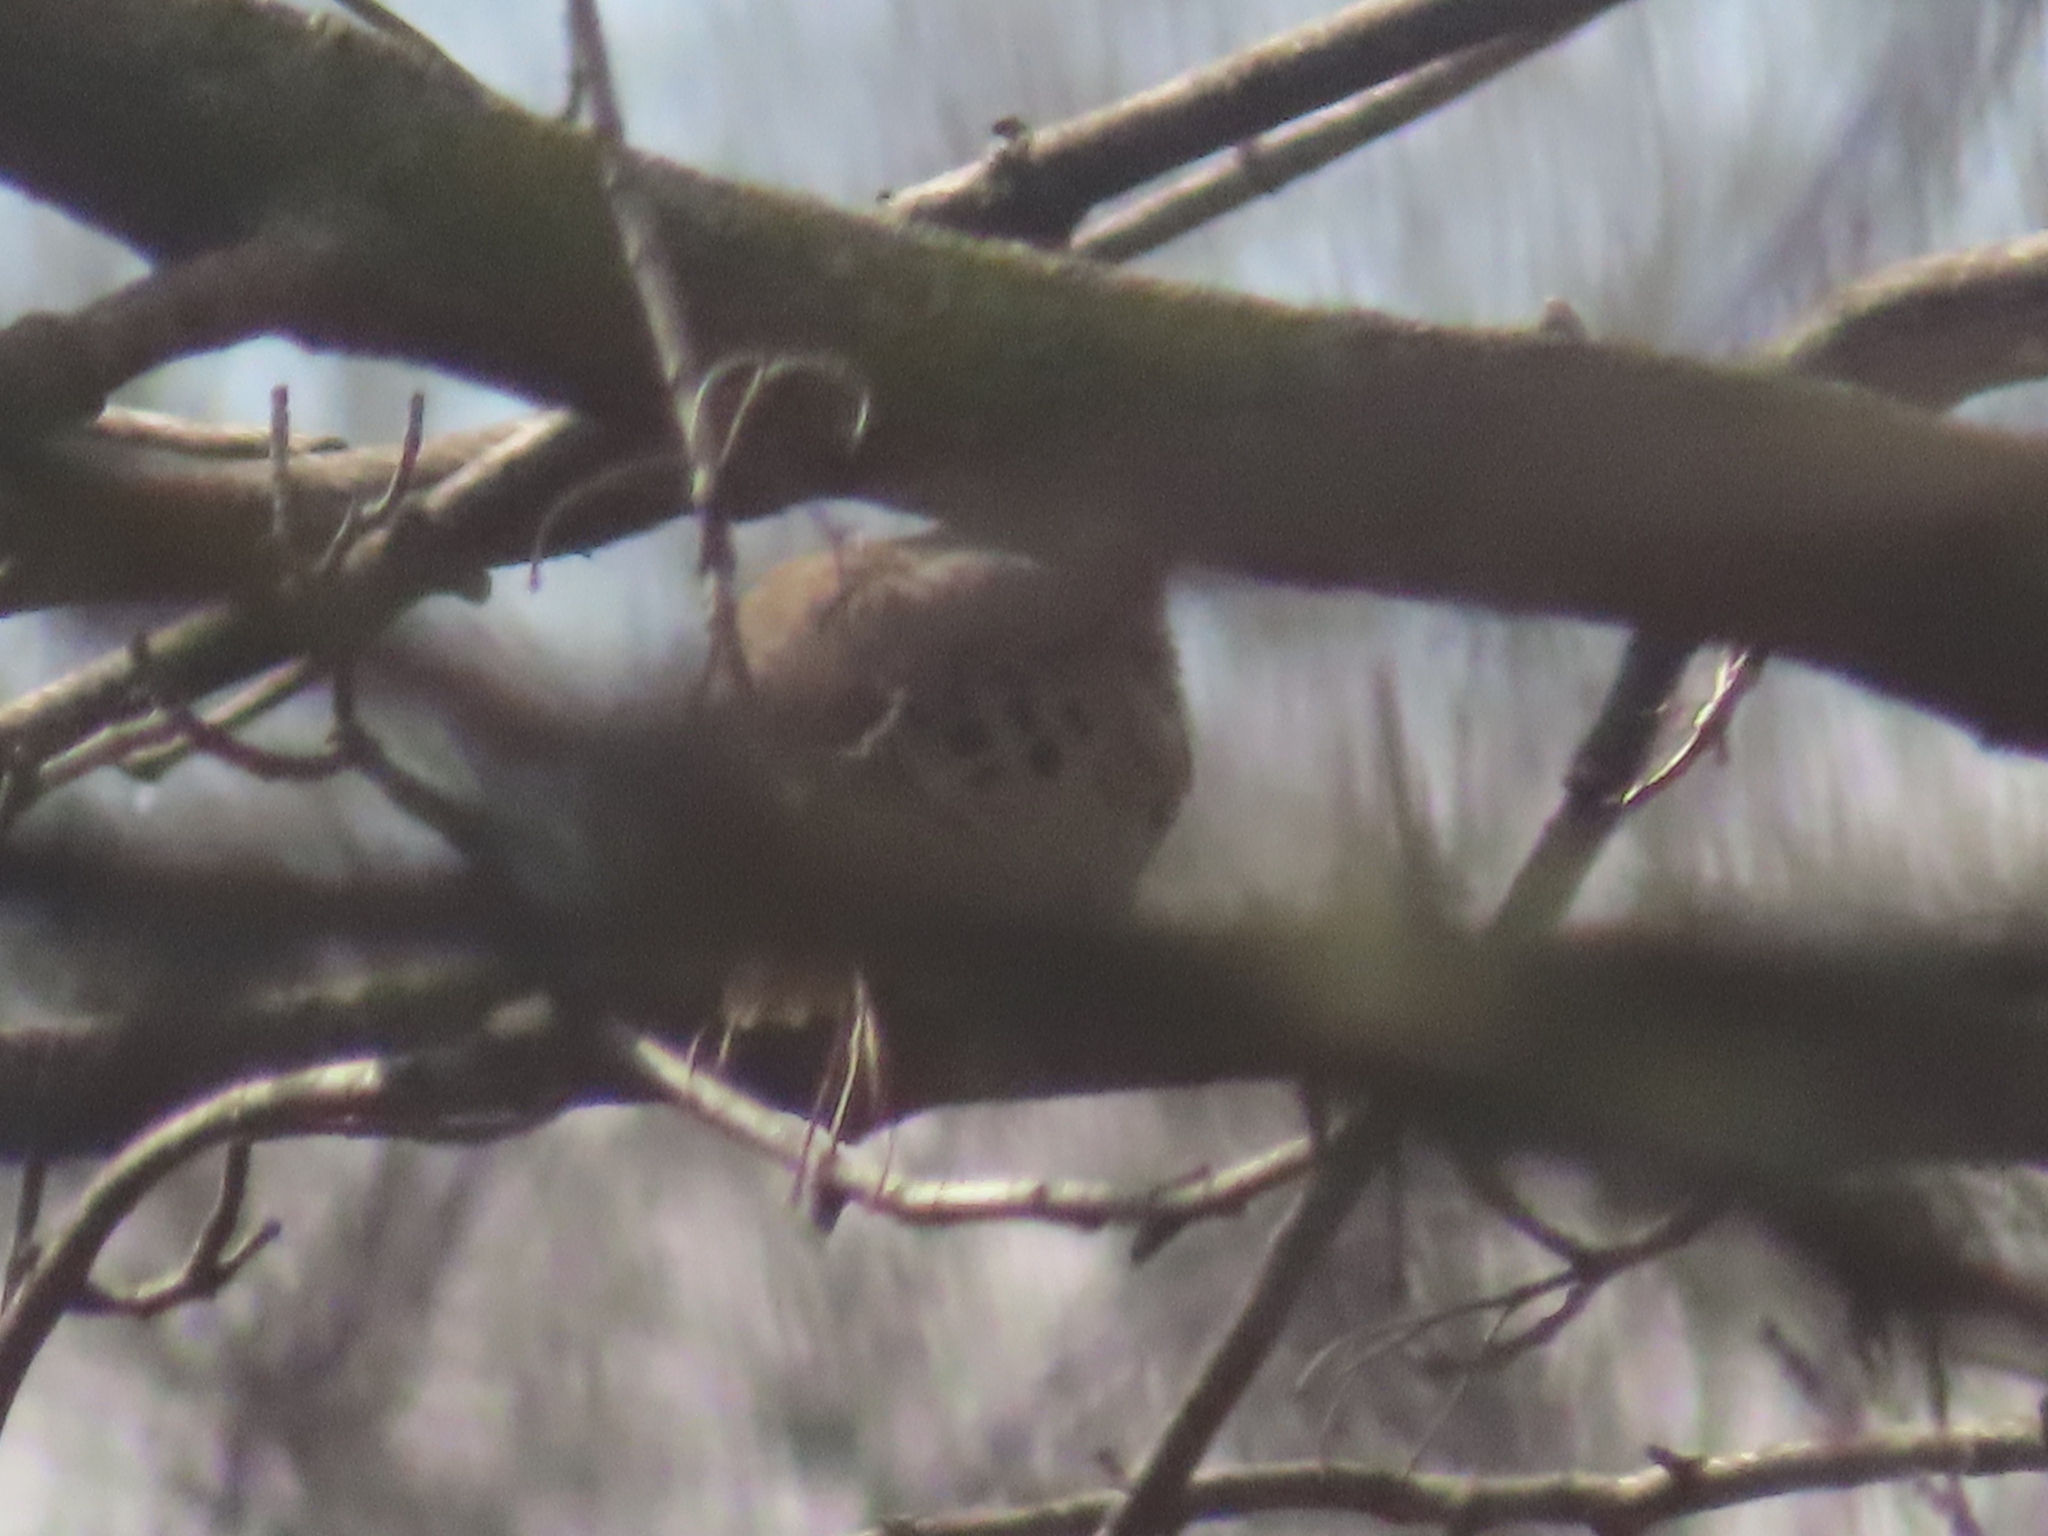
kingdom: Animalia
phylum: Chordata
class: Aves
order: Columbiformes
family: Columbidae
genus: Zenaida
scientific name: Zenaida macroura
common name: Mourning dove
